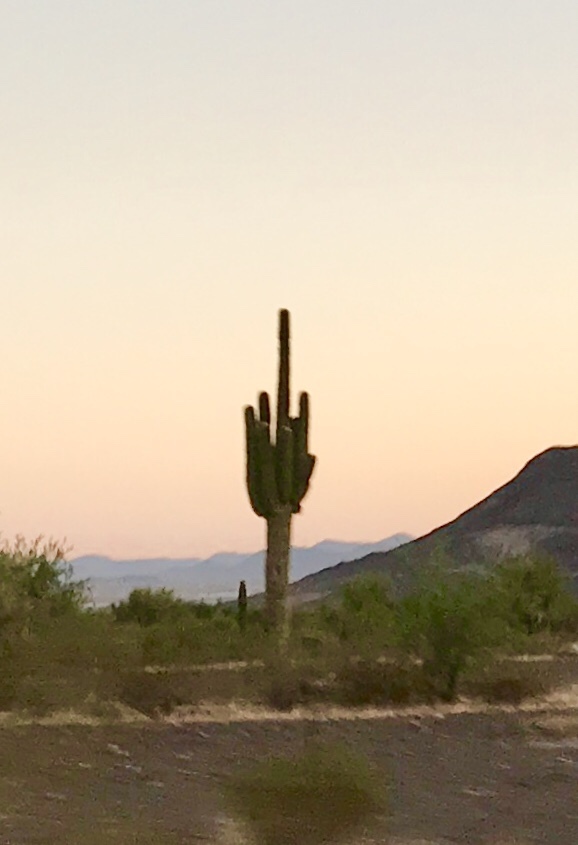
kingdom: Plantae
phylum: Tracheophyta
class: Magnoliopsida
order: Caryophyllales
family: Cactaceae
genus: Carnegiea
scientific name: Carnegiea gigantea
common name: Saguaro
